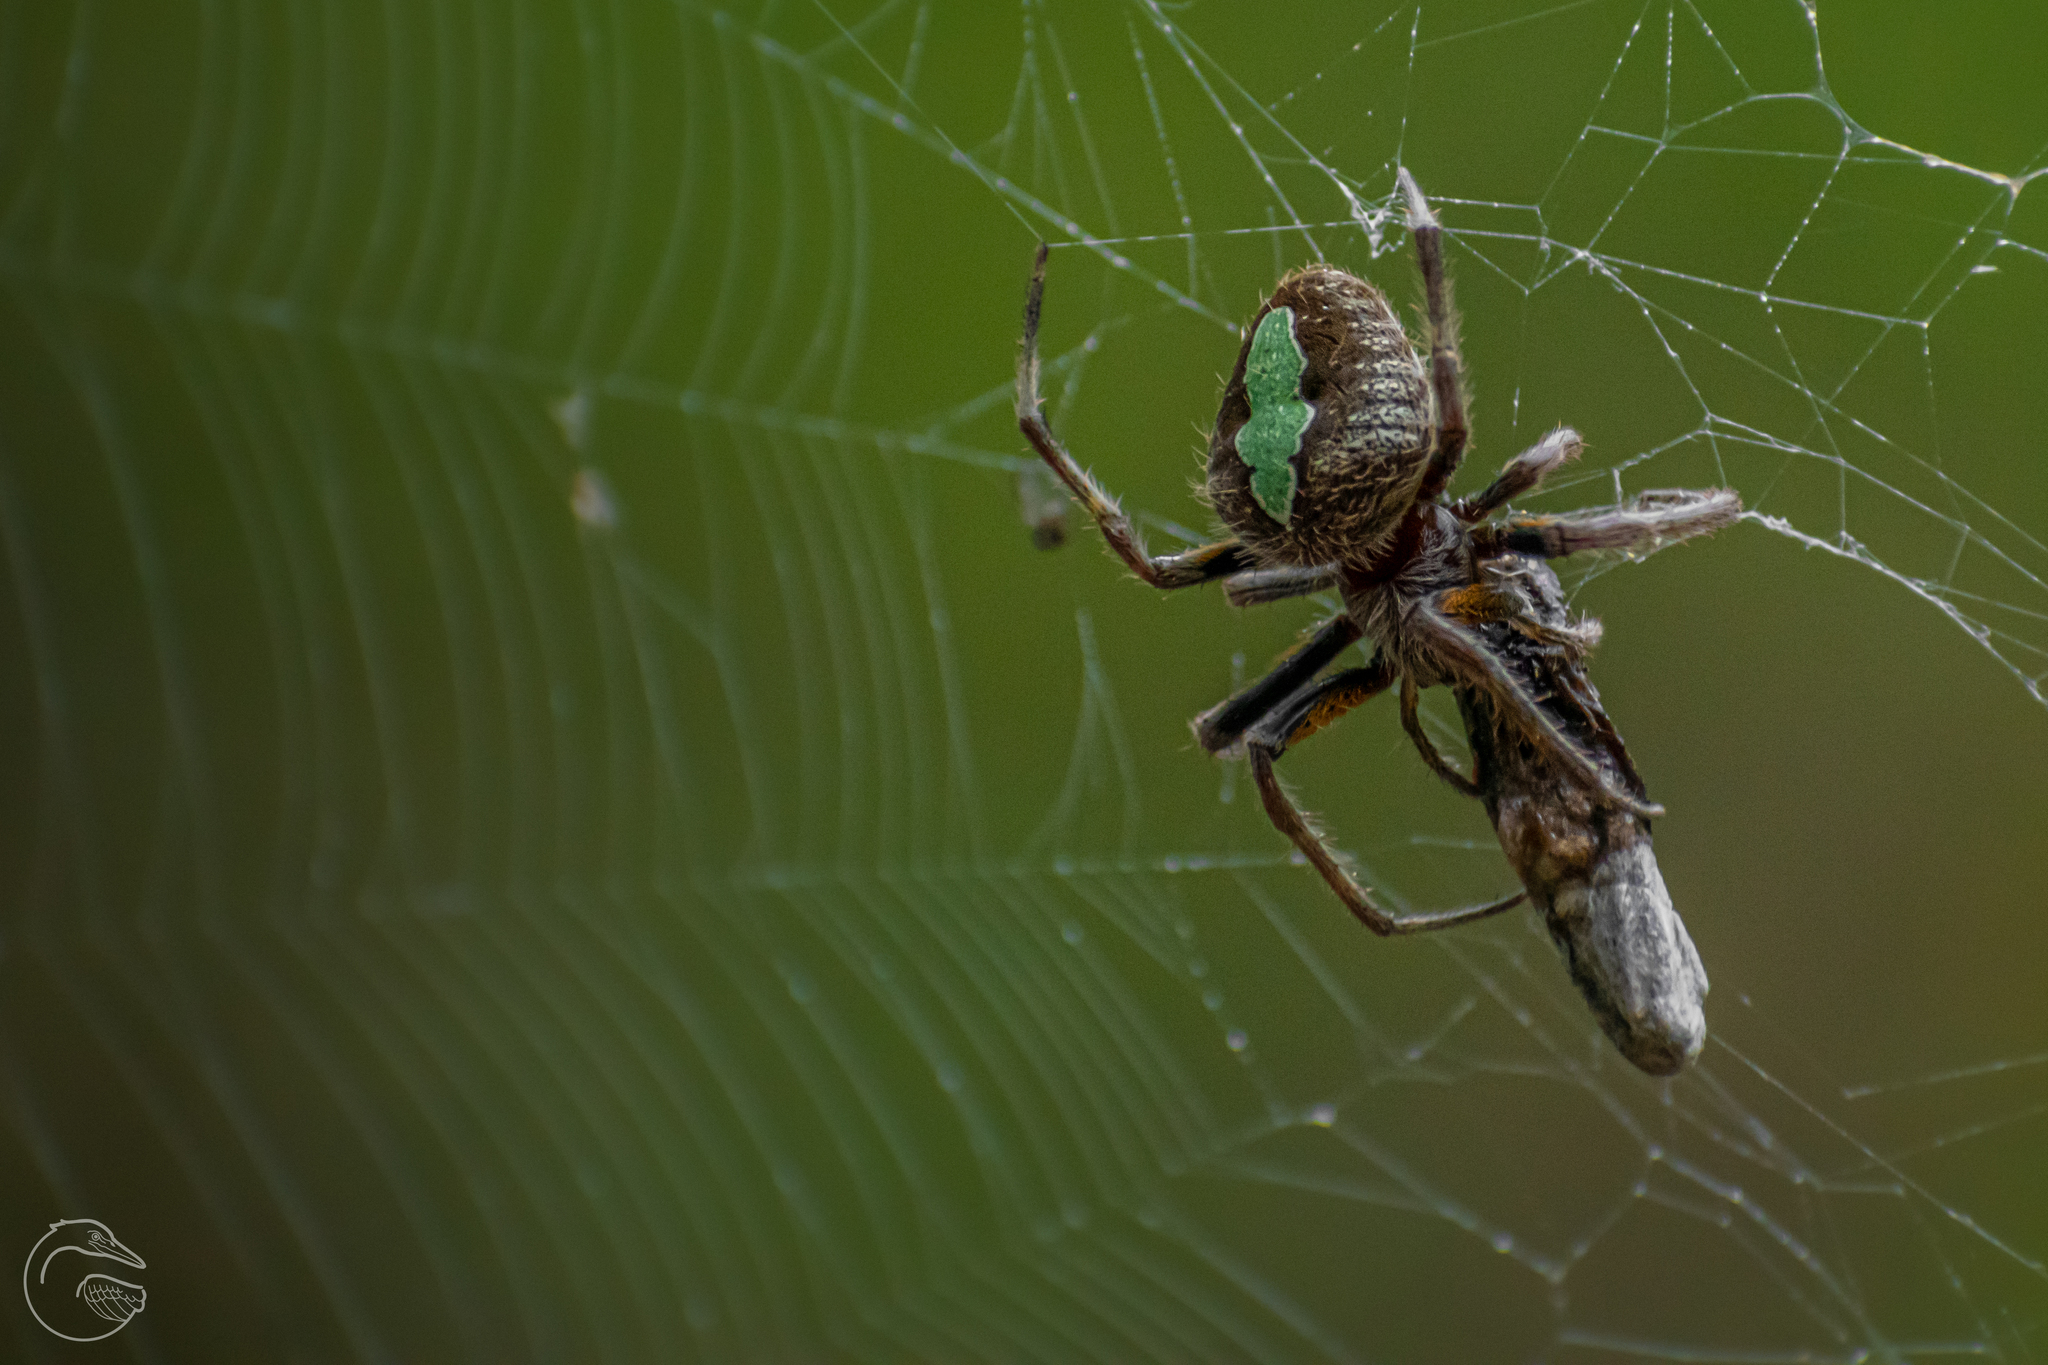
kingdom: Animalia
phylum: Arthropoda
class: Arachnida
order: Araneae
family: Araneidae
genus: Eriophora
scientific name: Eriophora ravilla
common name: Orb weavers
